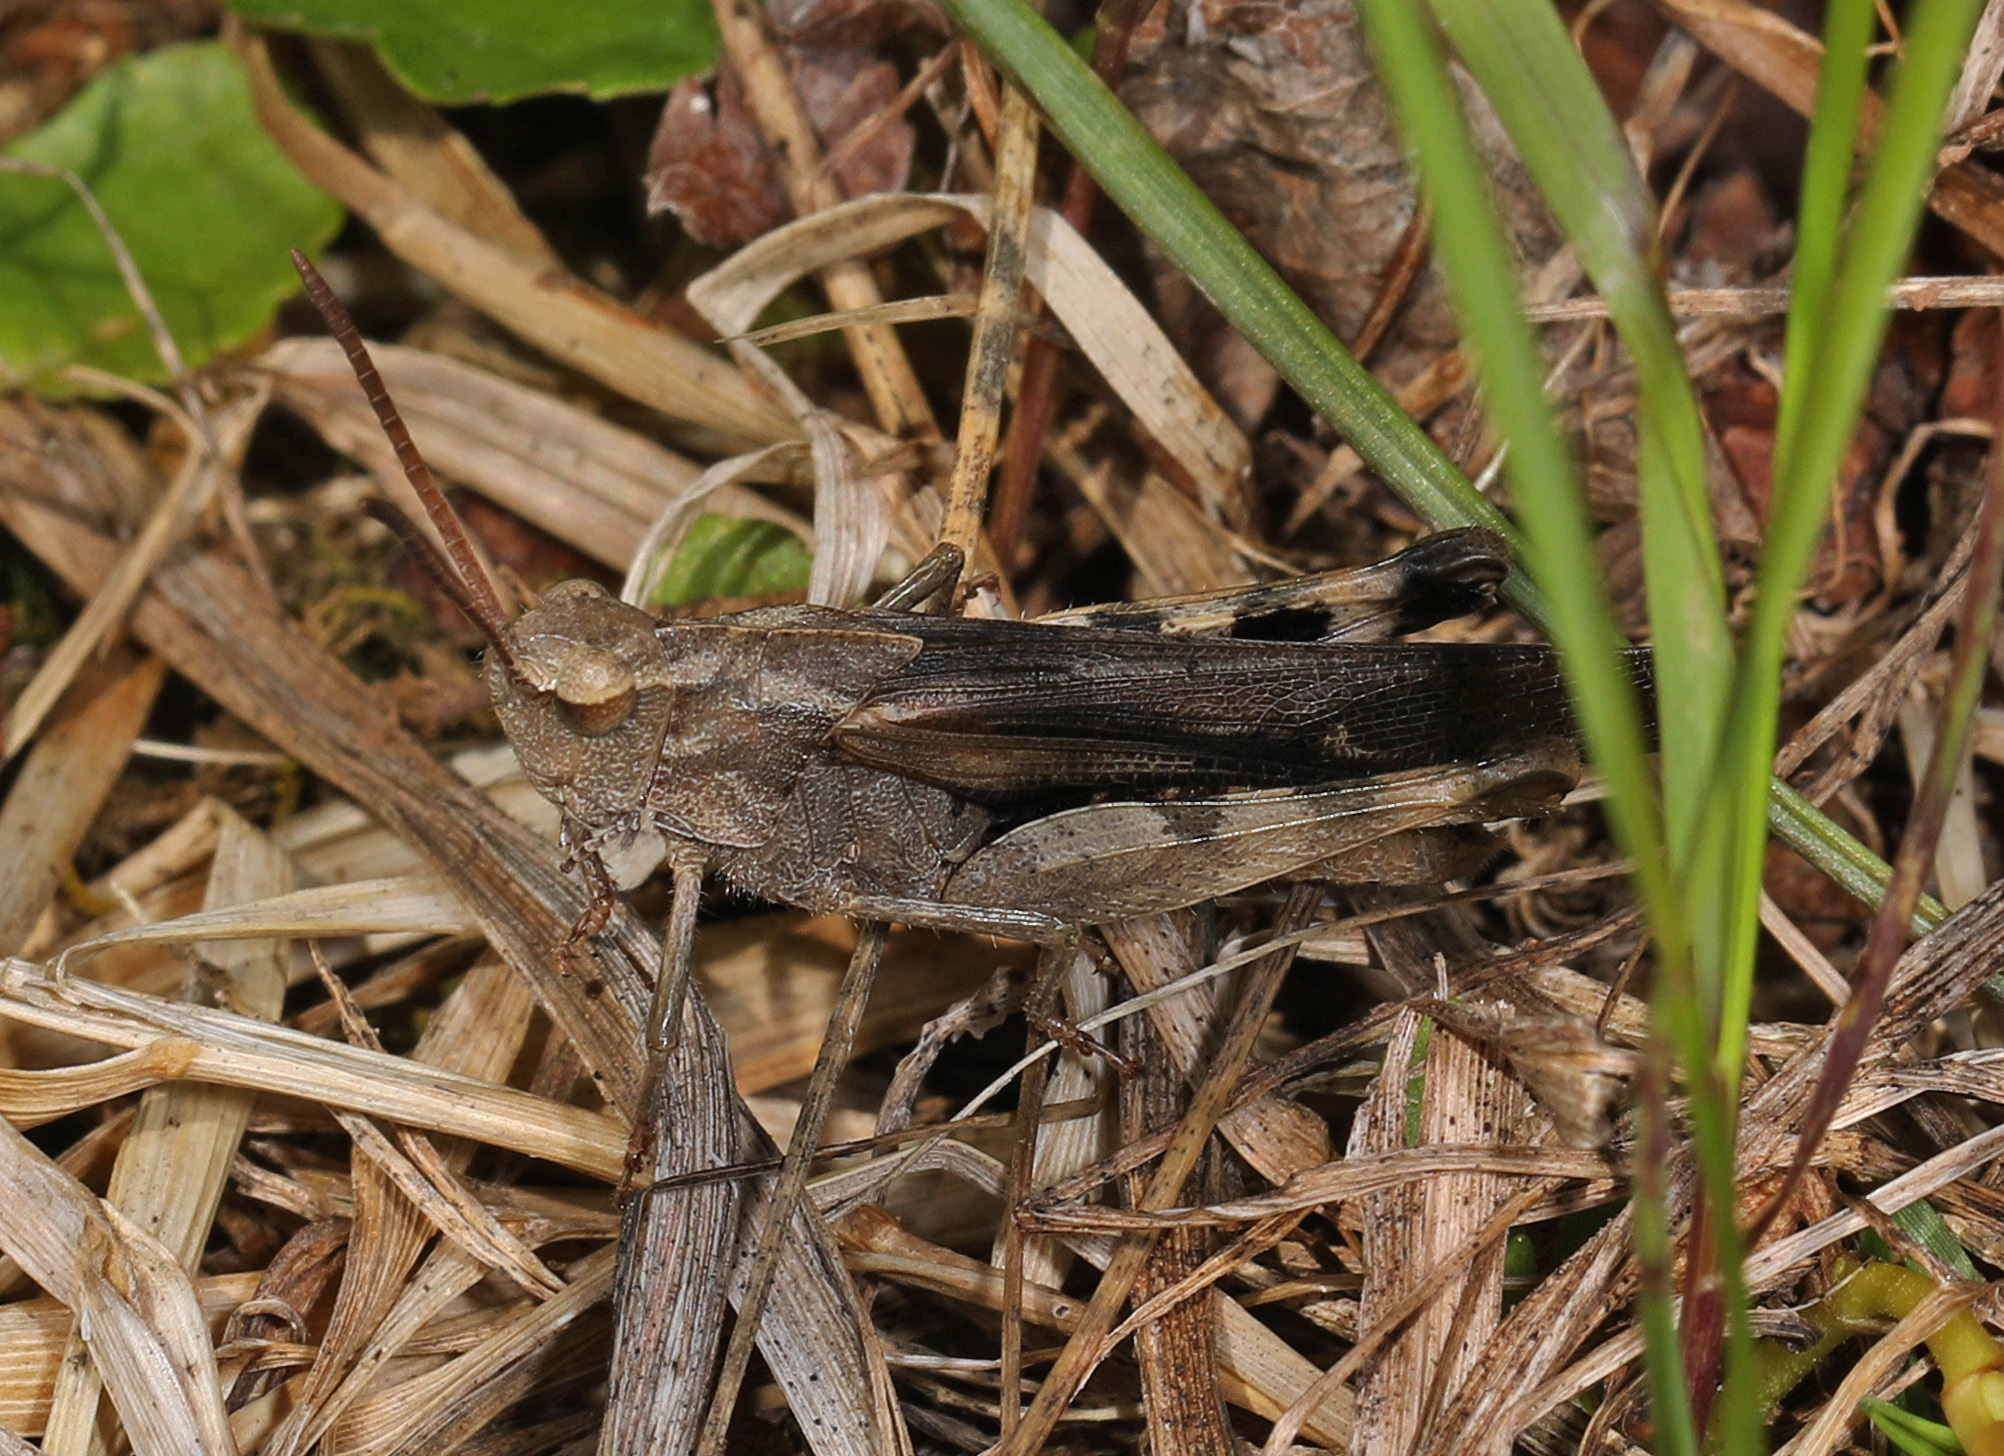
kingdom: Animalia
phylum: Arthropoda
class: Insecta
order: Orthoptera
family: Acrididae
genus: Chortophaga
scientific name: Chortophaga viridifasciata
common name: Green-striped grasshopper
